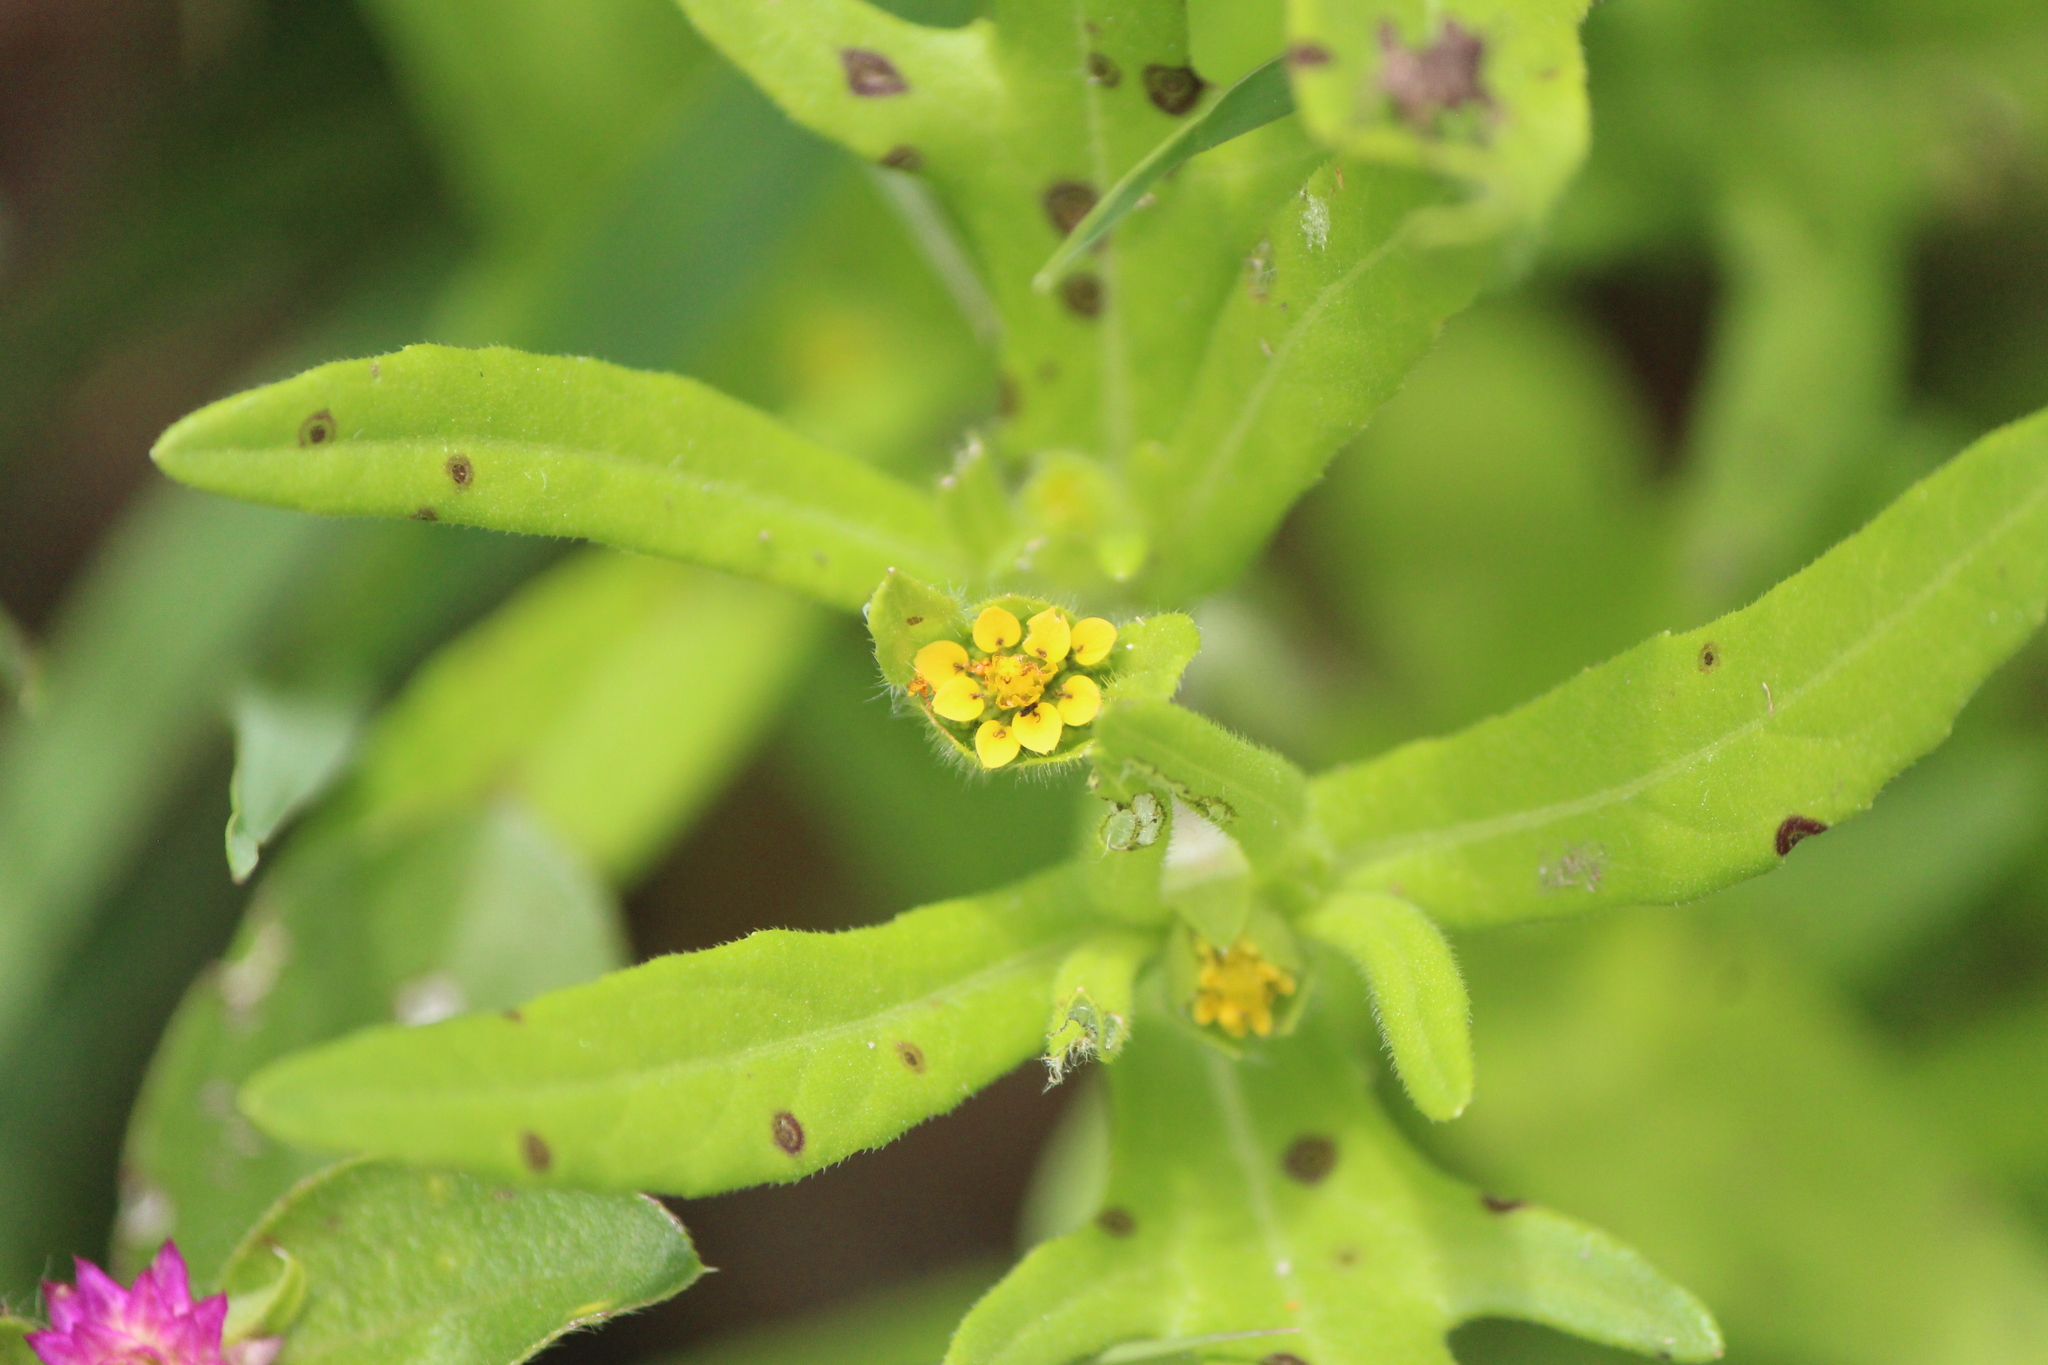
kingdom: Plantae
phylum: Tracheophyta
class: Magnoliopsida
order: Asterales
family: Asteraceae
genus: Melampodium
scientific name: Melampodium sericeum
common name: Rough blackfoot
